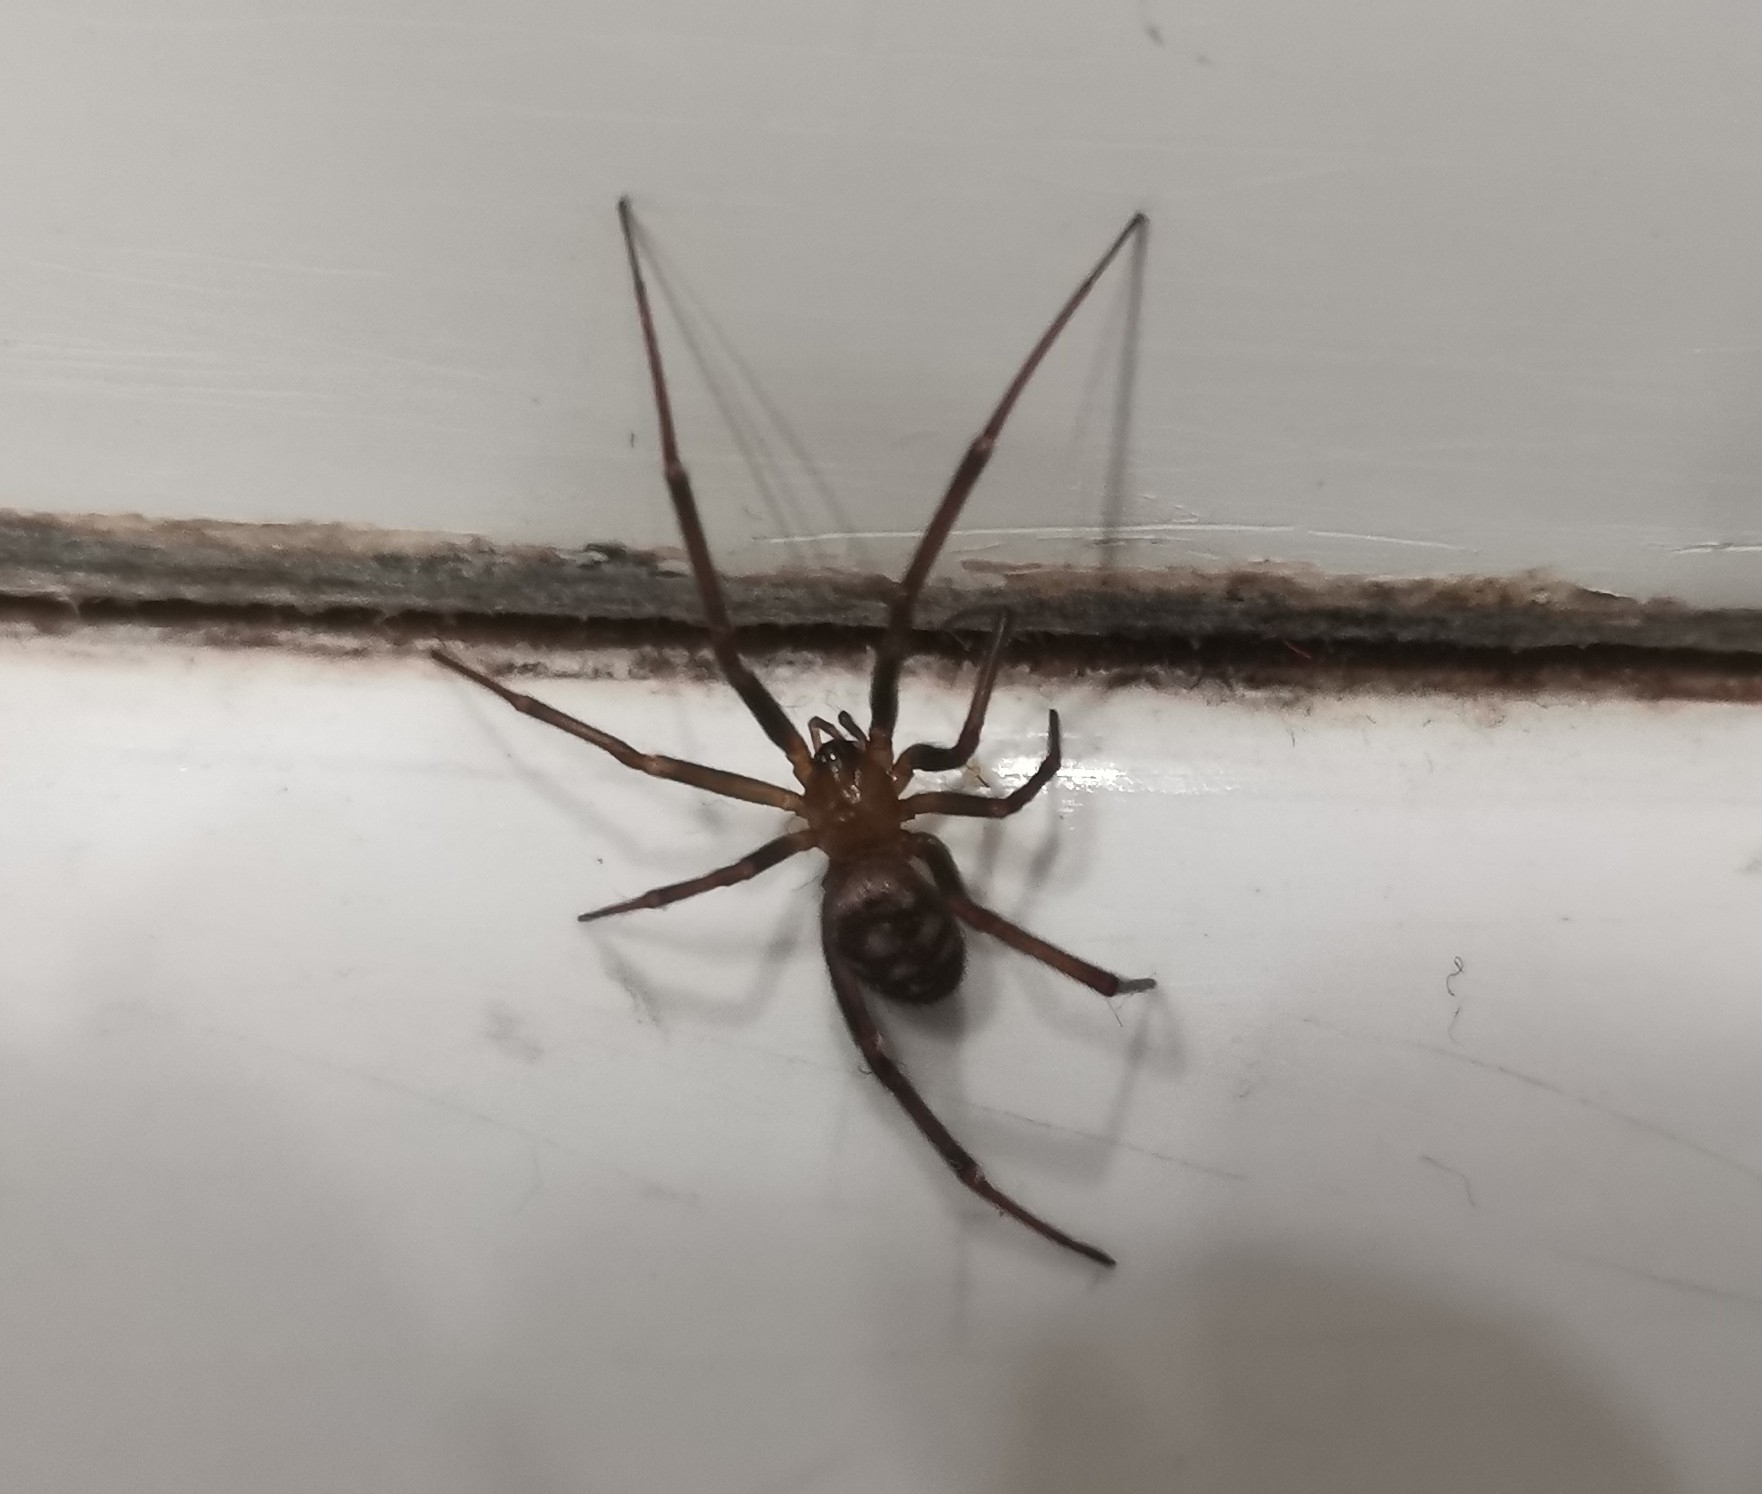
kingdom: Animalia
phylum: Arthropoda
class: Arachnida
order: Araneae
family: Theridiidae
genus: Steatoda
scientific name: Steatoda grossa
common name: False black widow
